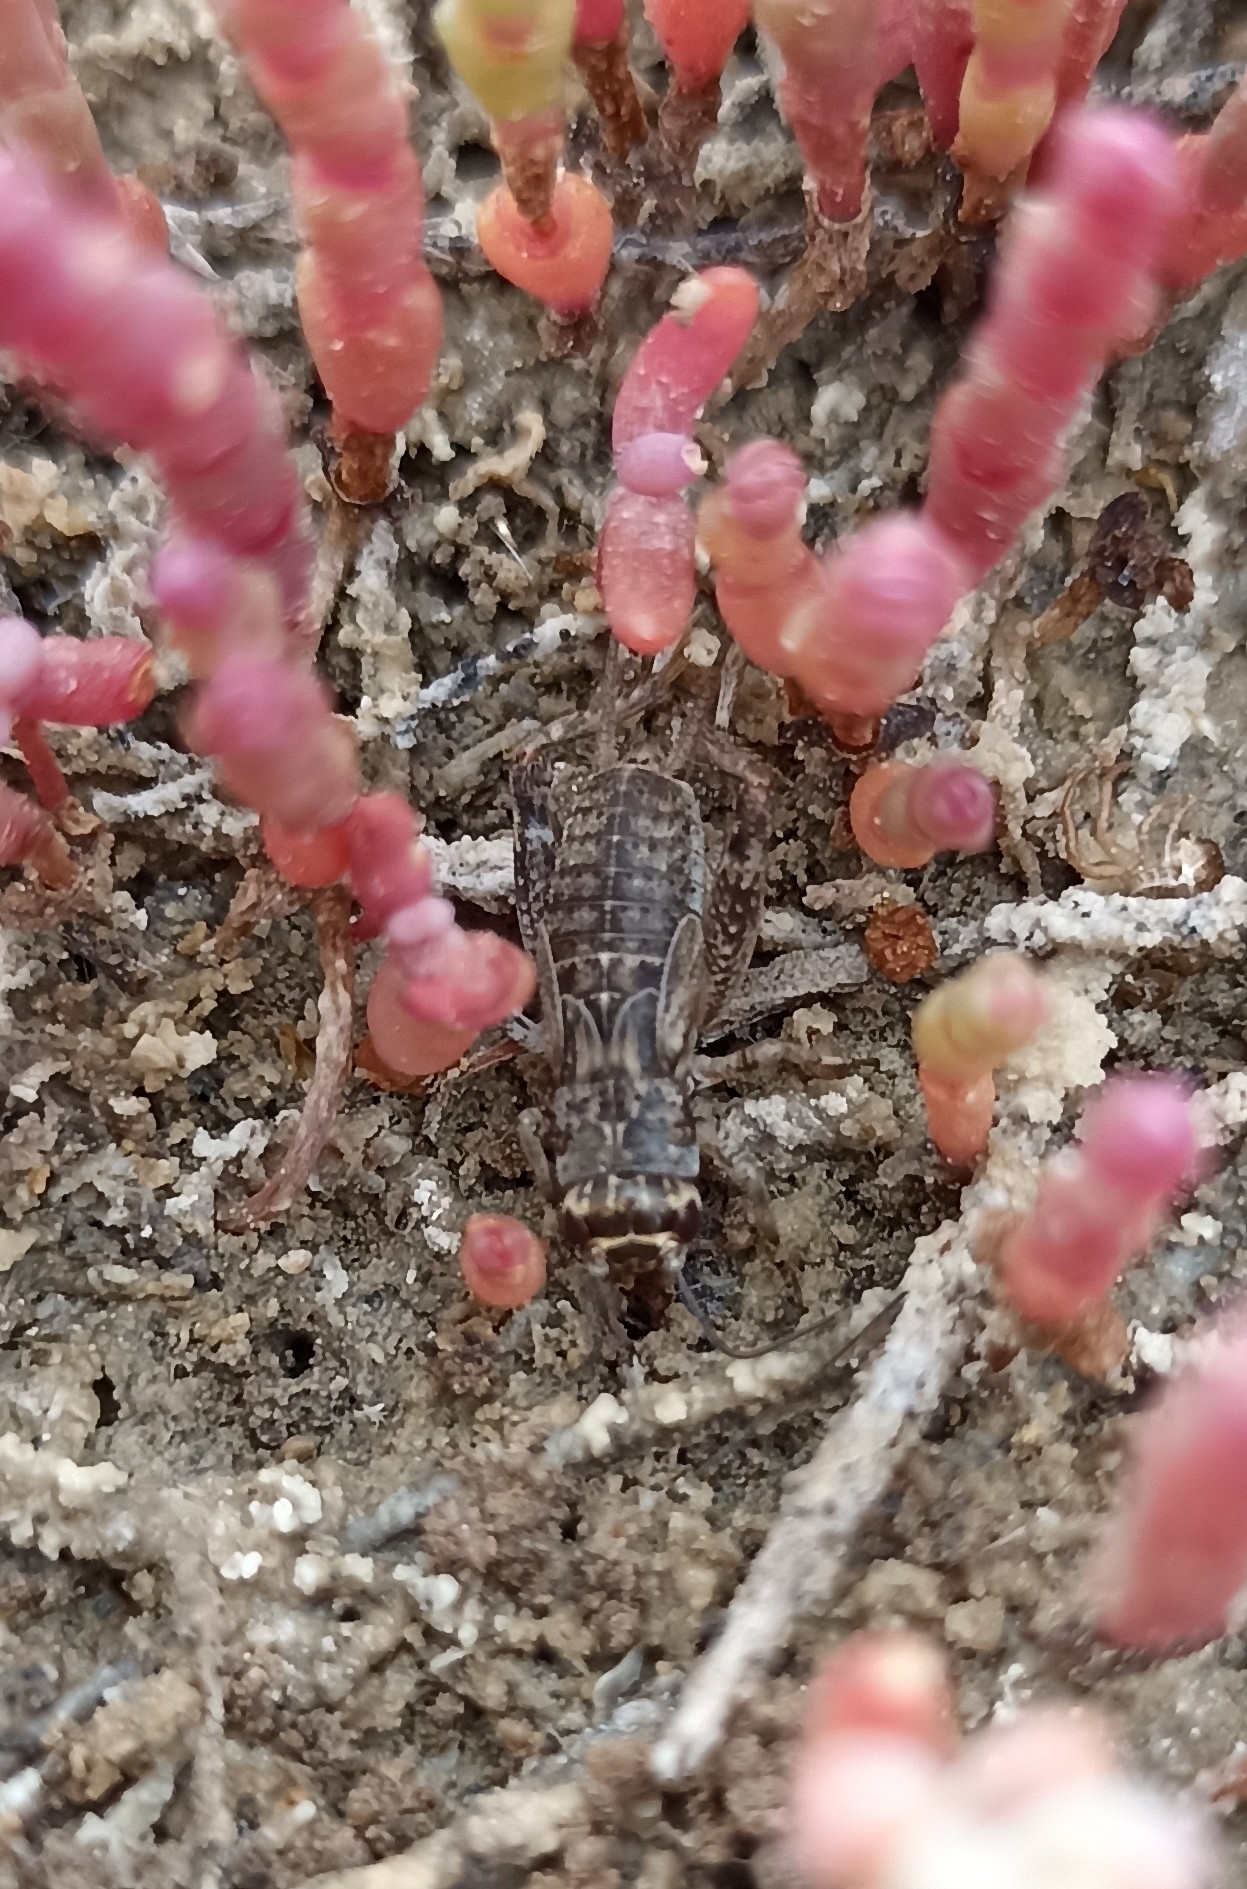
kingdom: Animalia
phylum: Arthropoda
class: Insecta
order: Orthoptera
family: Gryllidae
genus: Eumodicogryllus
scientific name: Eumodicogryllus bordigalensis
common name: Bordeaux cricket
